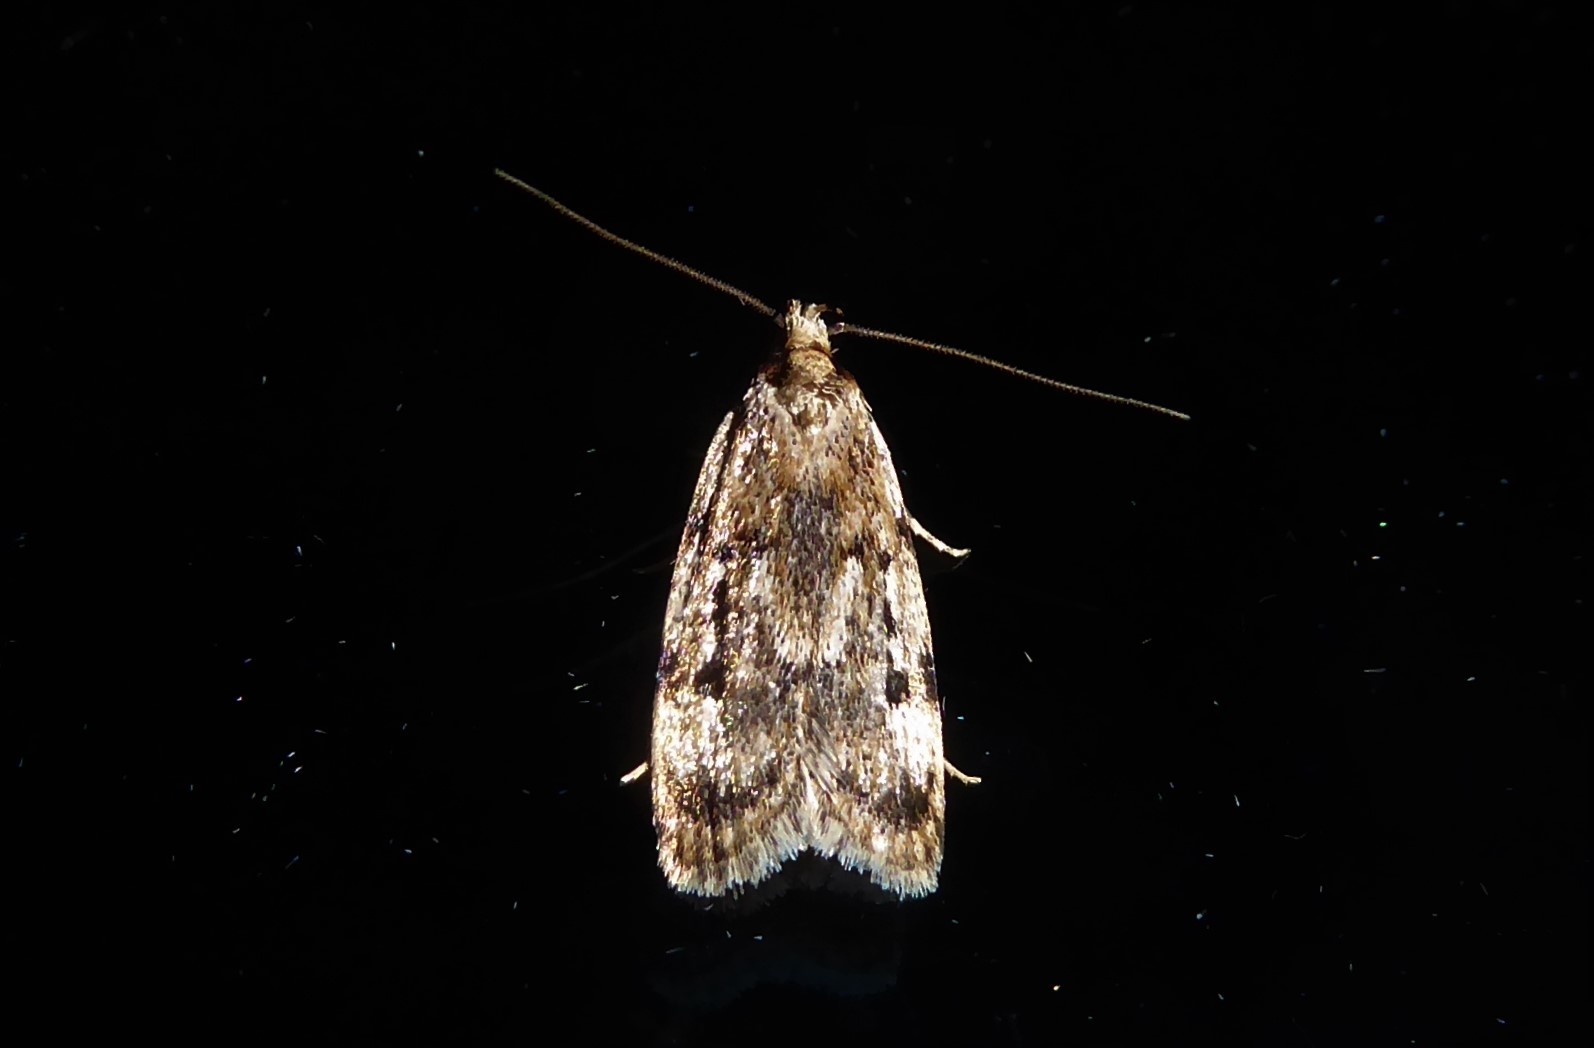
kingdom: Animalia
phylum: Arthropoda
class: Insecta
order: Lepidoptera
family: Oecophoridae
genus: Barea
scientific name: Barea exarcha
